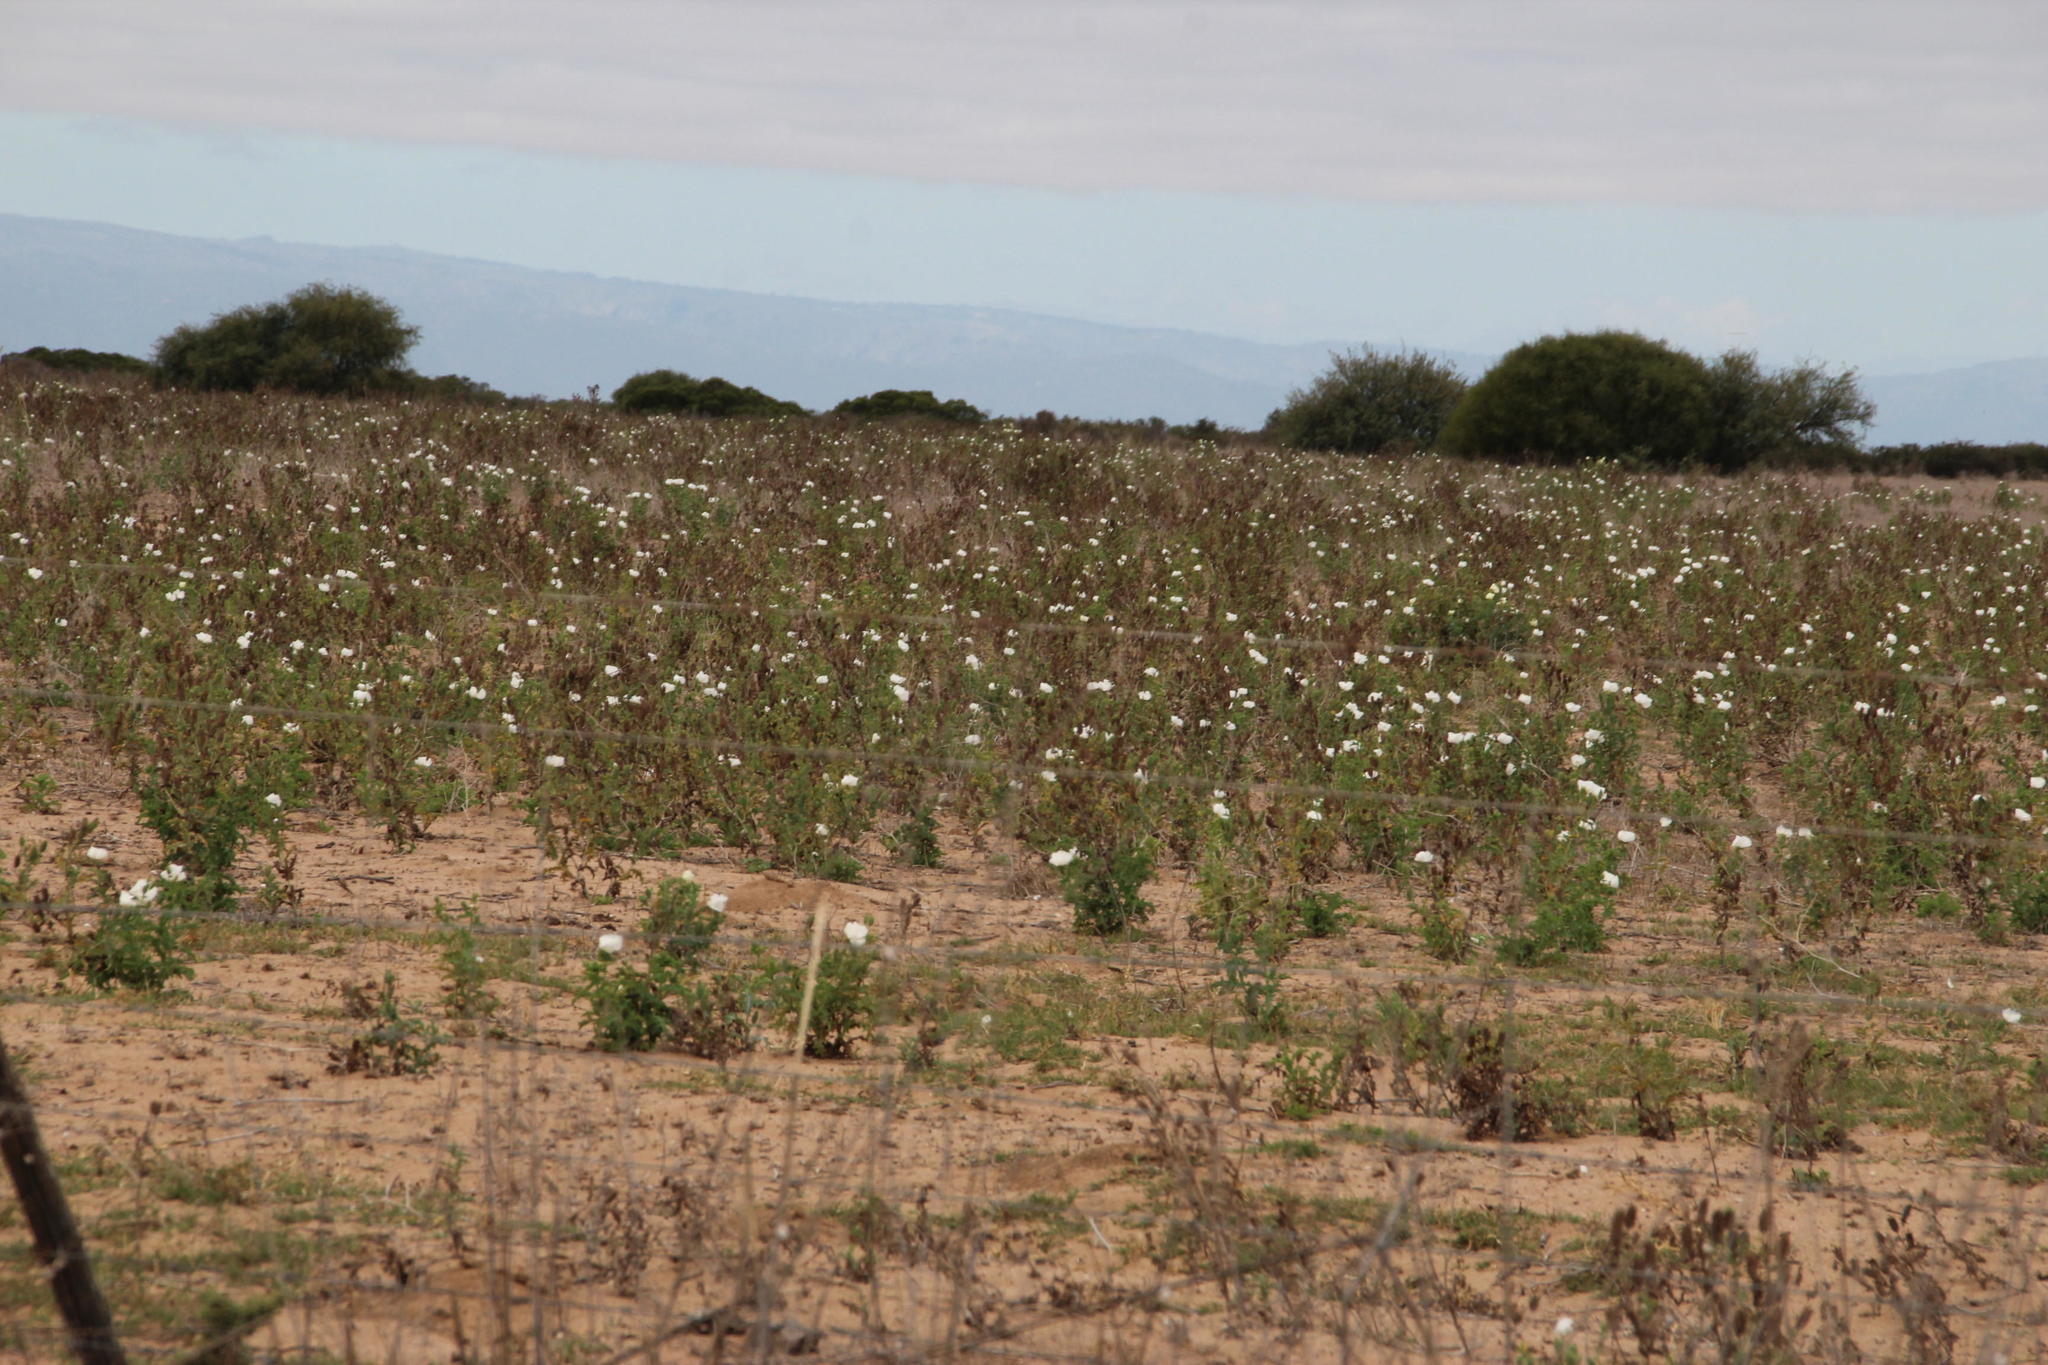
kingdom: Plantae
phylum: Tracheophyta
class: Magnoliopsida
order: Ranunculales
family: Papaveraceae
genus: Argemone
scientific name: Argemone ochroleuca
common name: White-flower mexican-poppy
